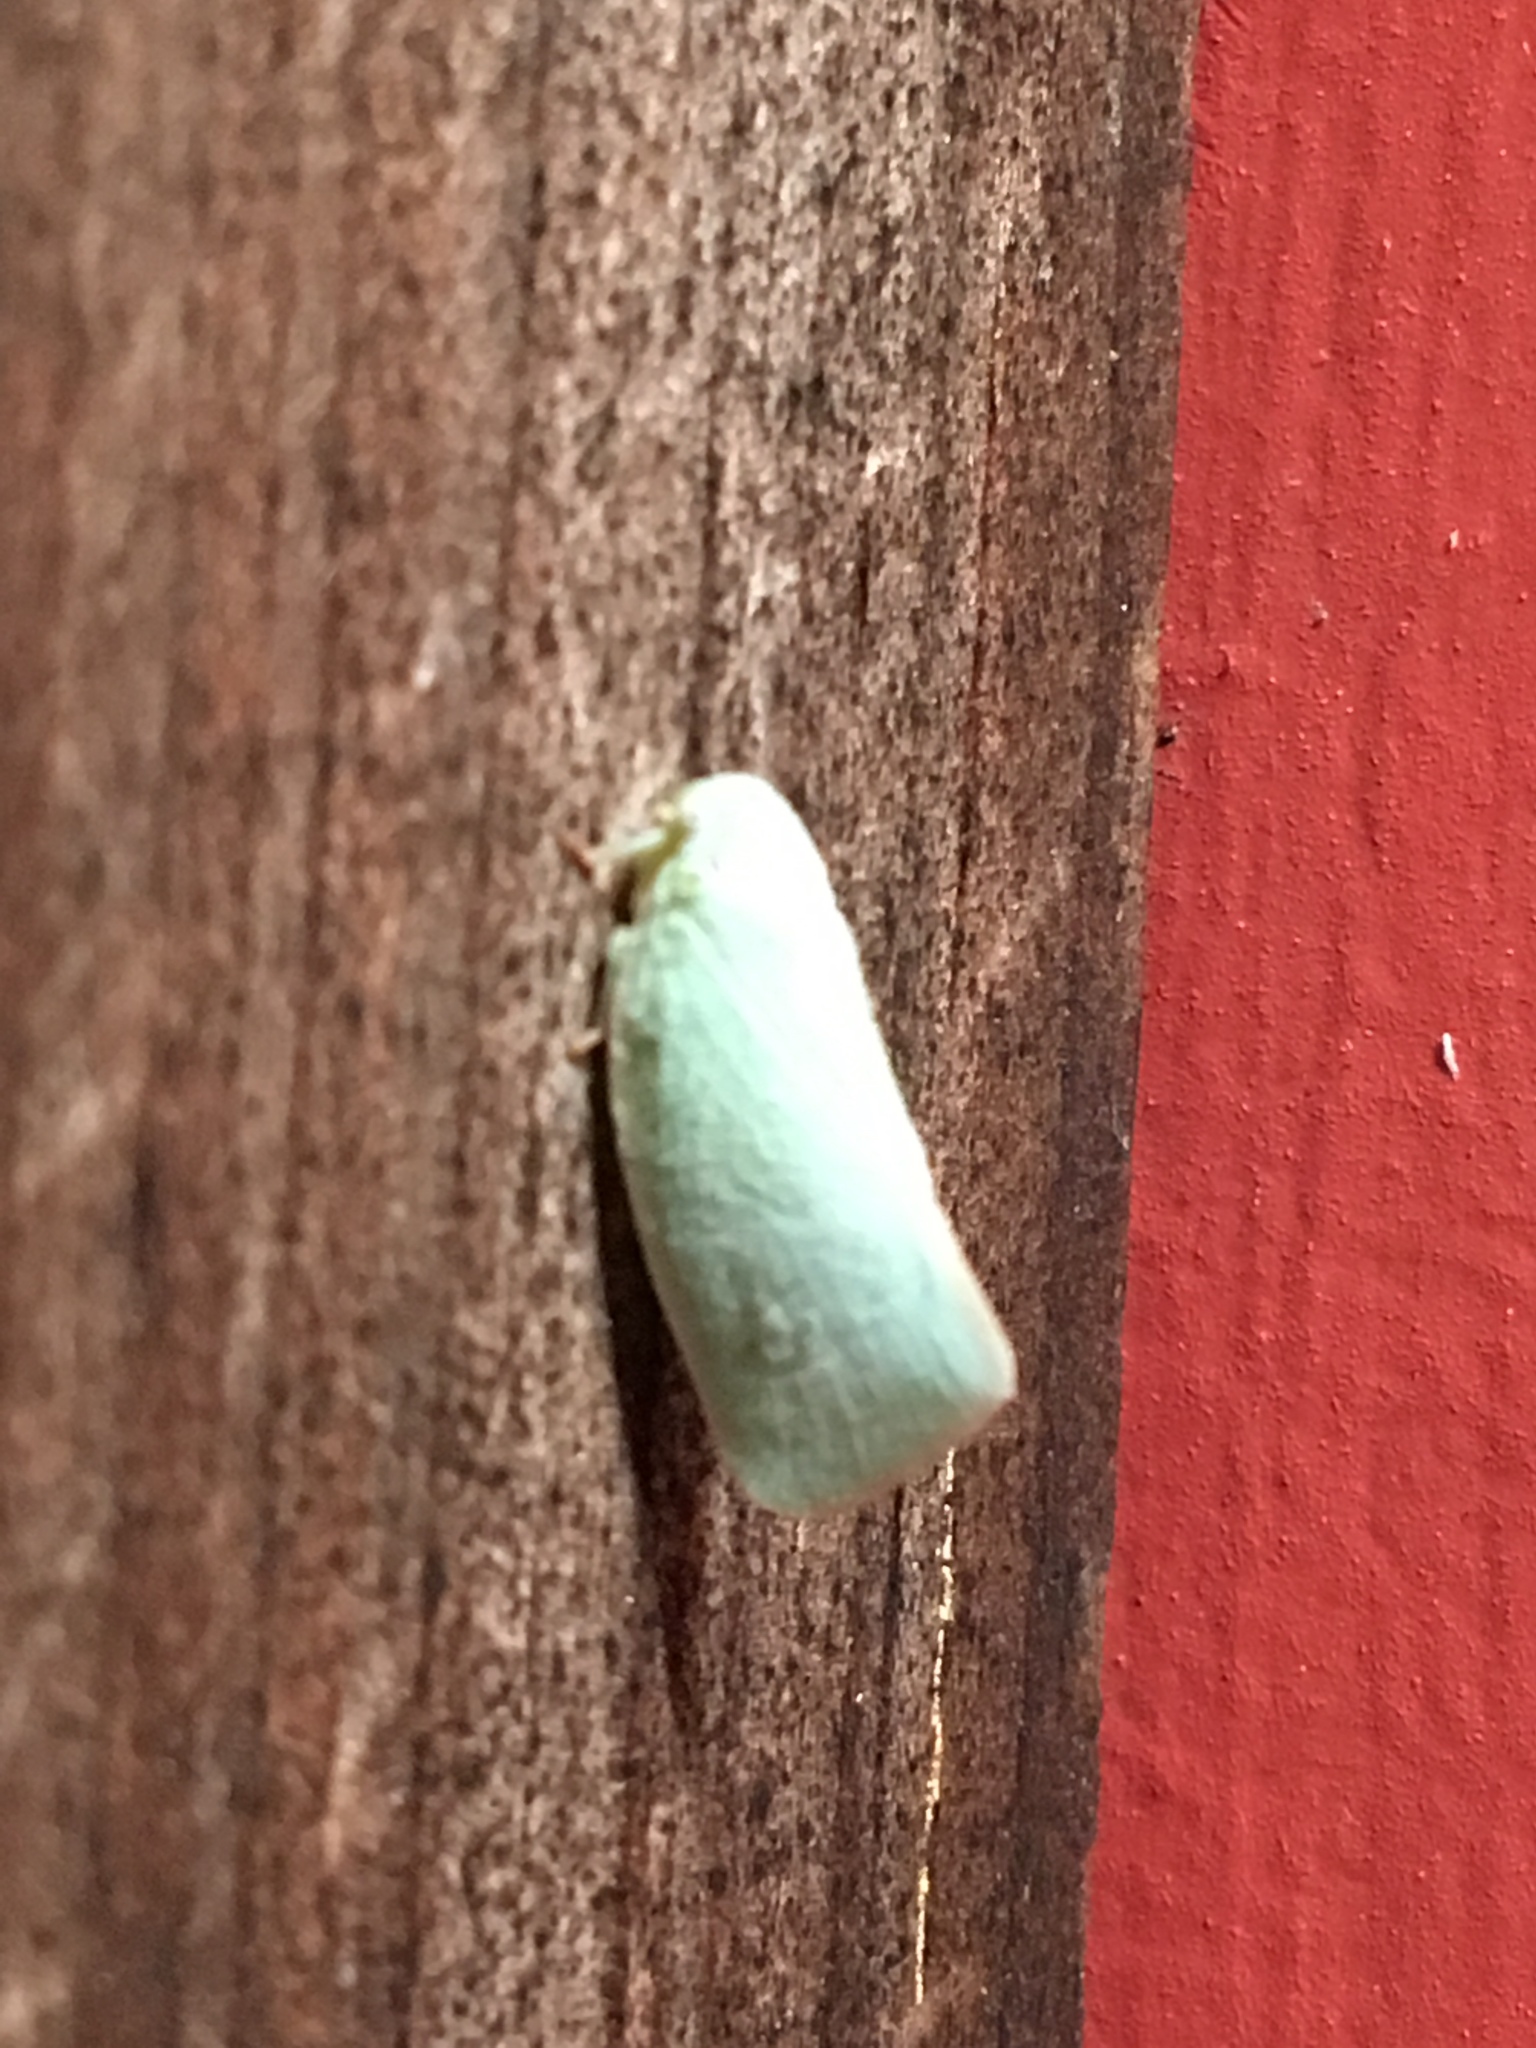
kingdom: Animalia
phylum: Arthropoda
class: Insecta
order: Hemiptera
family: Flatidae
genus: Flatormenis
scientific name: Flatormenis proxima
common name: Northern flatid planthopper
